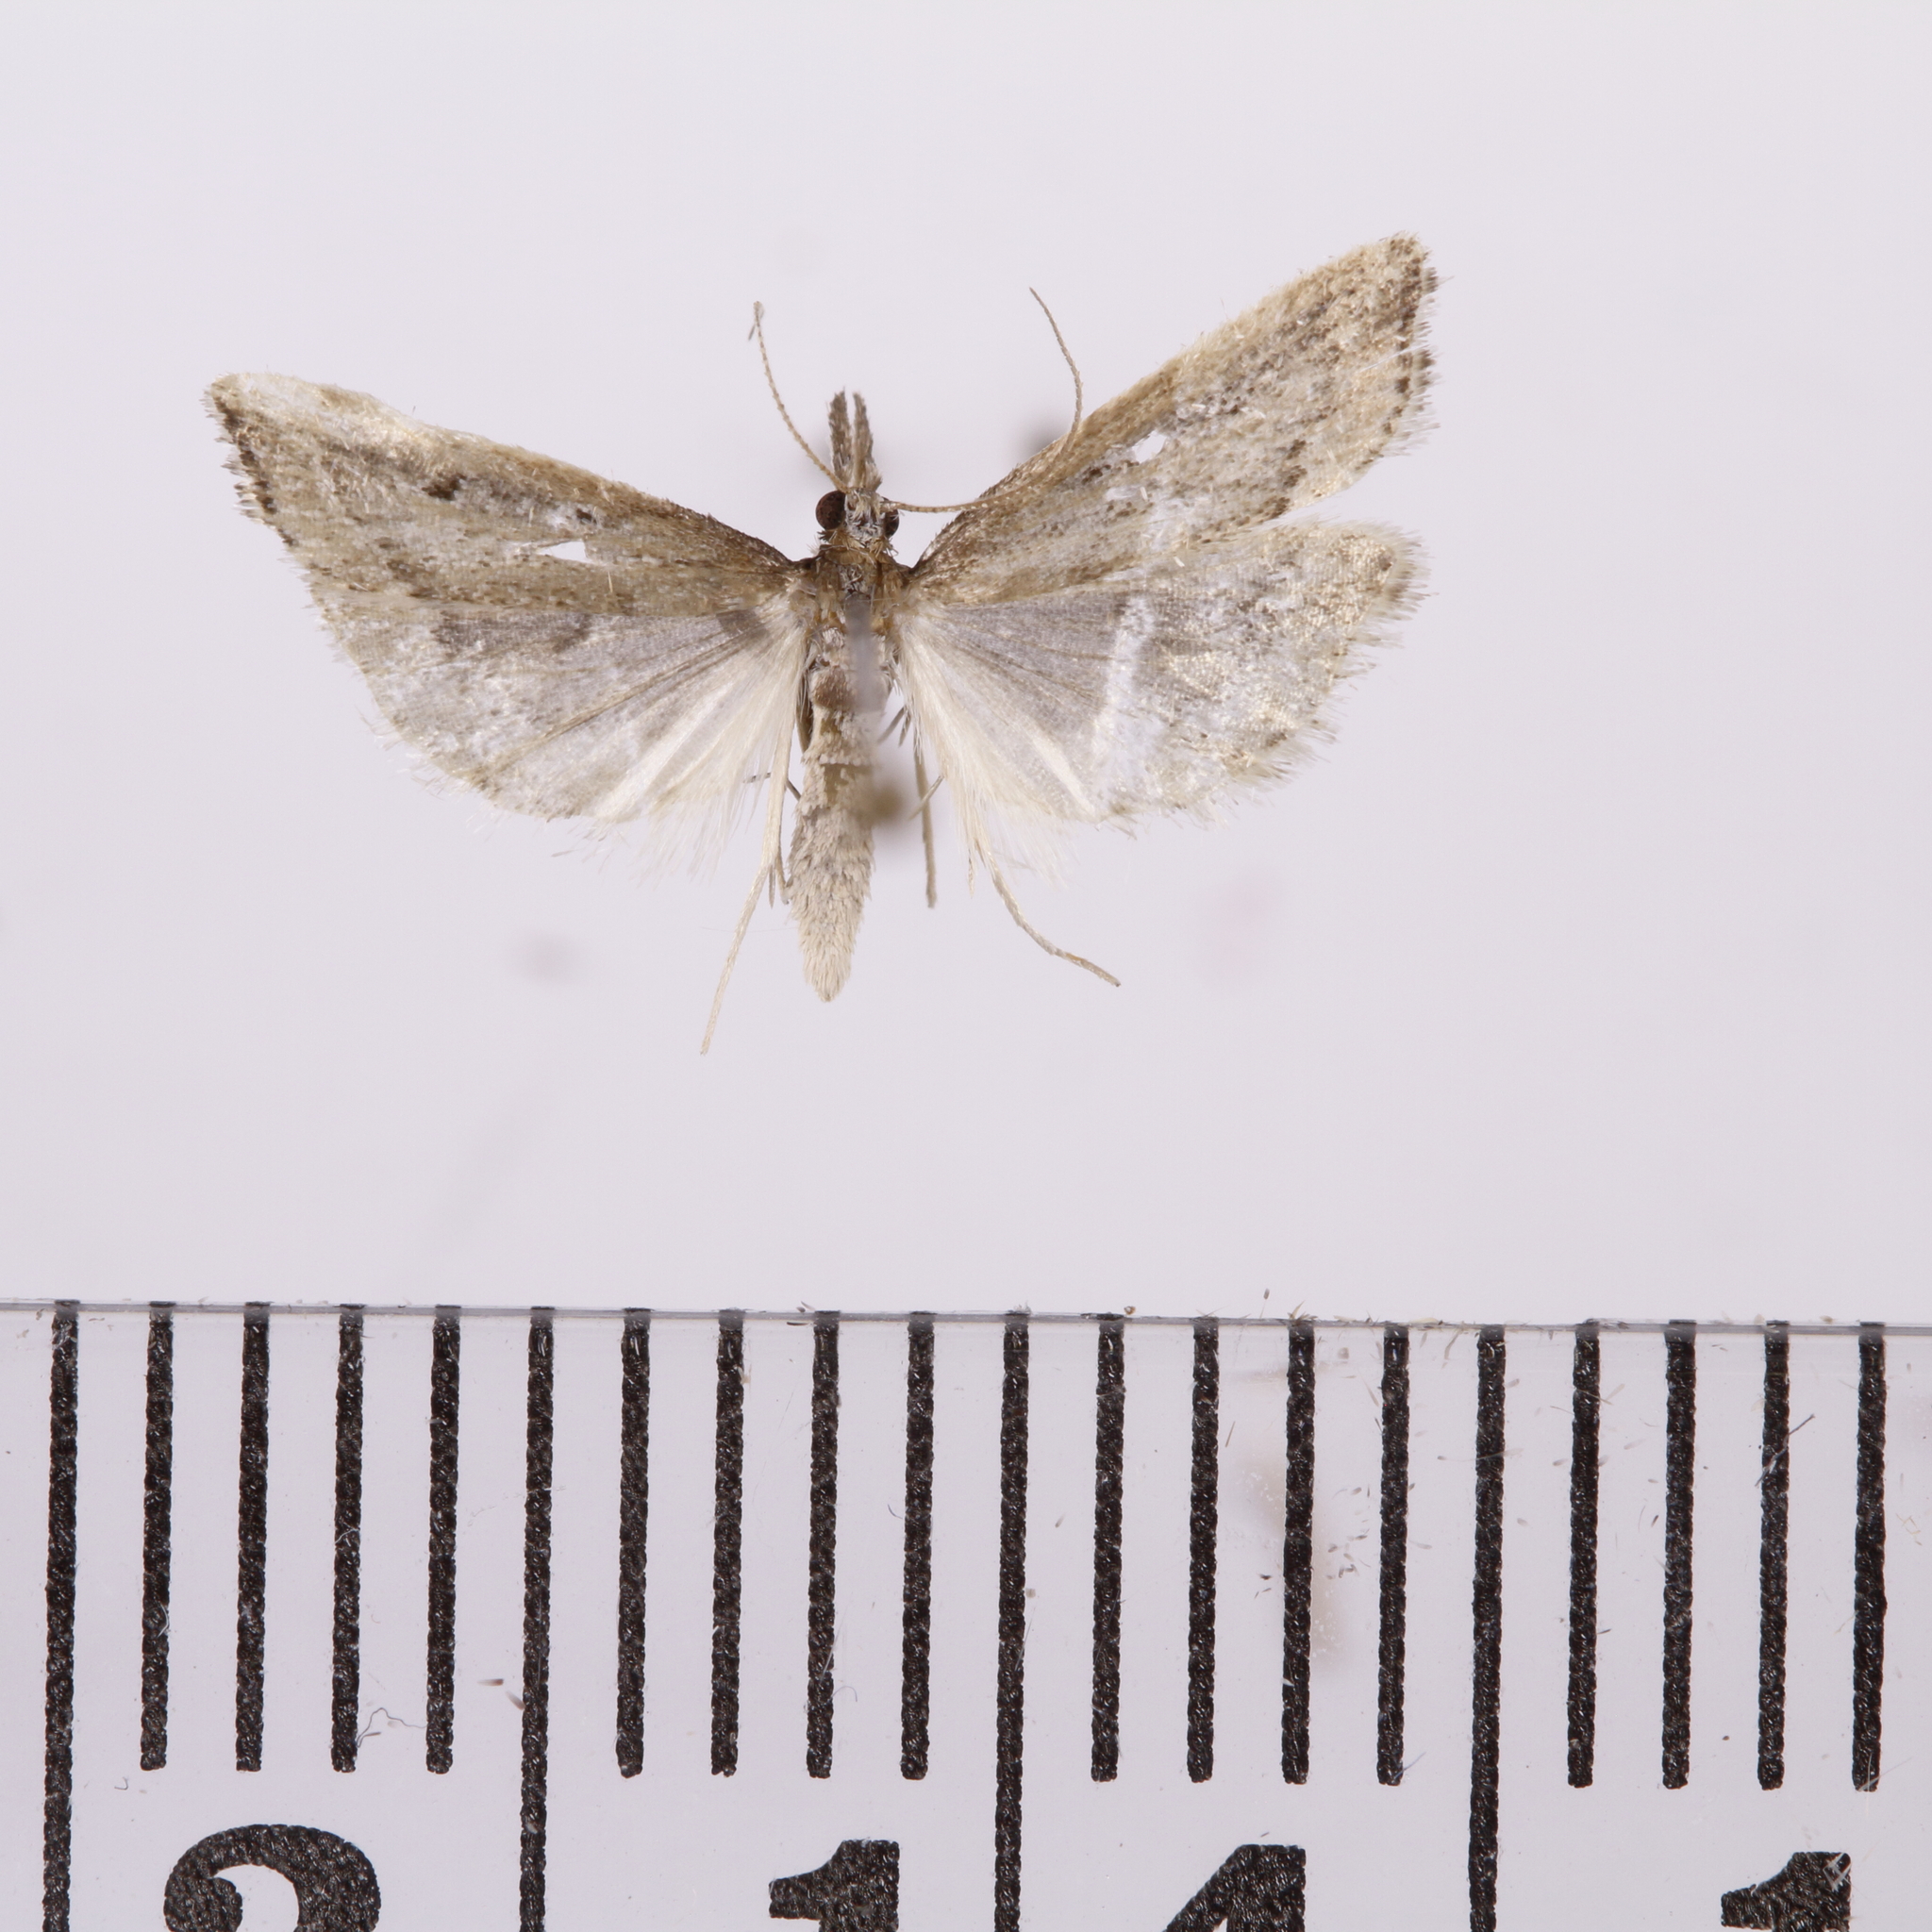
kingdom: Animalia
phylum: Arthropoda
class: Insecta
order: Lepidoptera
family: Crambidae
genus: Antiscopa
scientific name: Antiscopa elaphra
